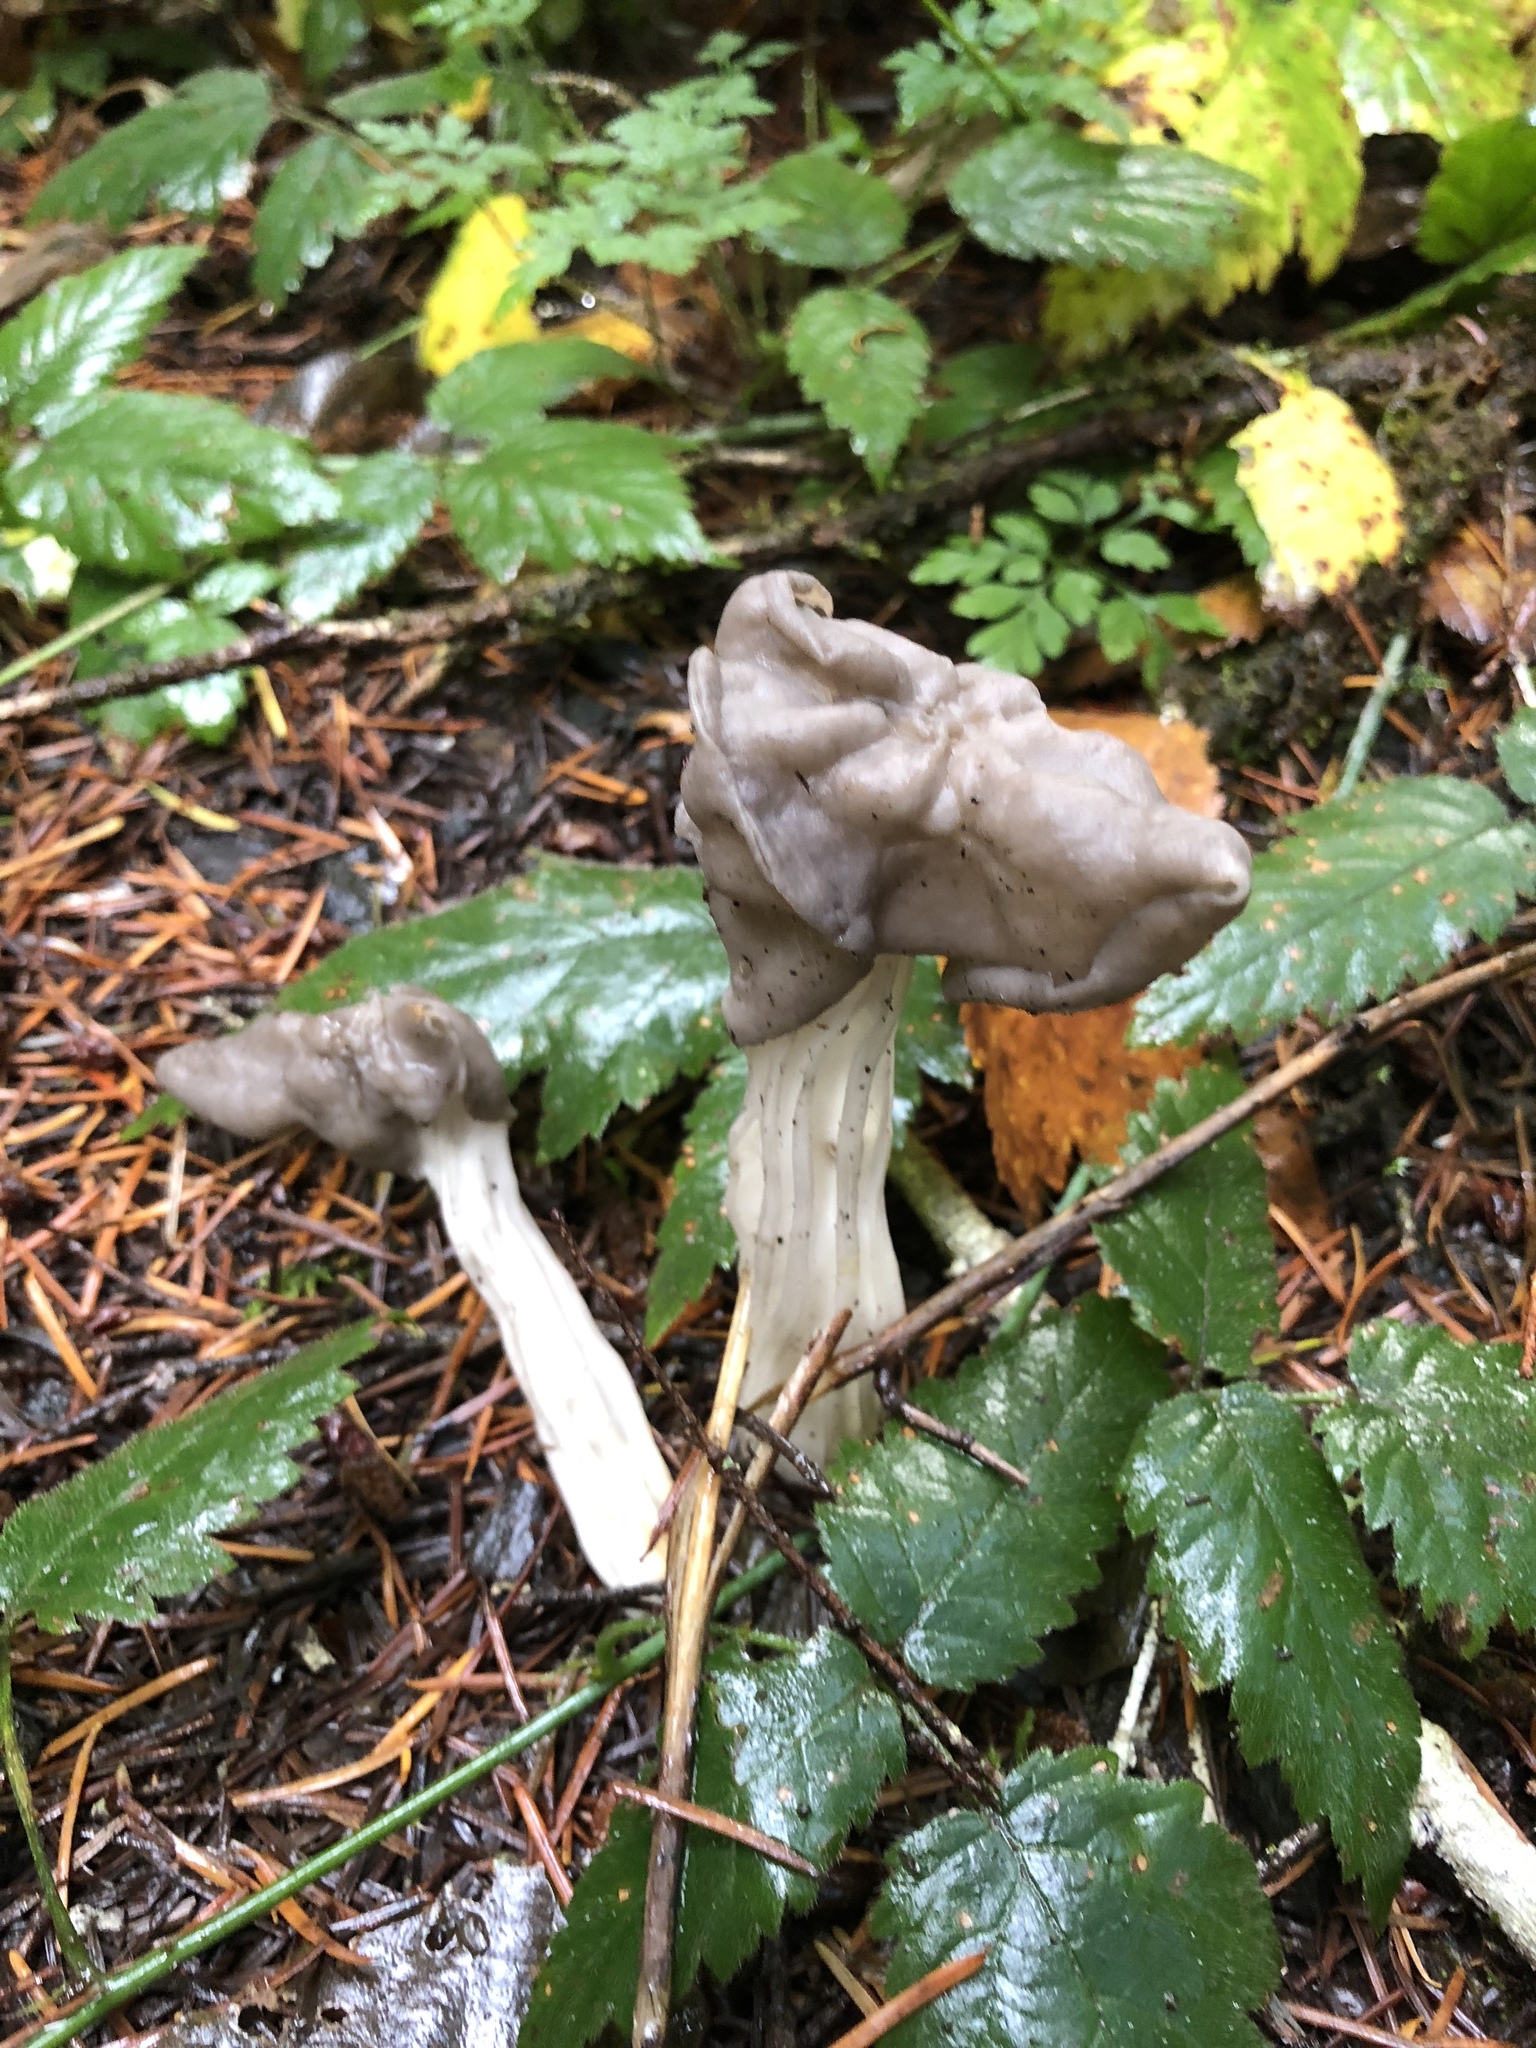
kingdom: Fungi
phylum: Ascomycota
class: Pezizomycetes
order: Pezizales
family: Helvellaceae
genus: Helvella
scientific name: Helvella vespertina
